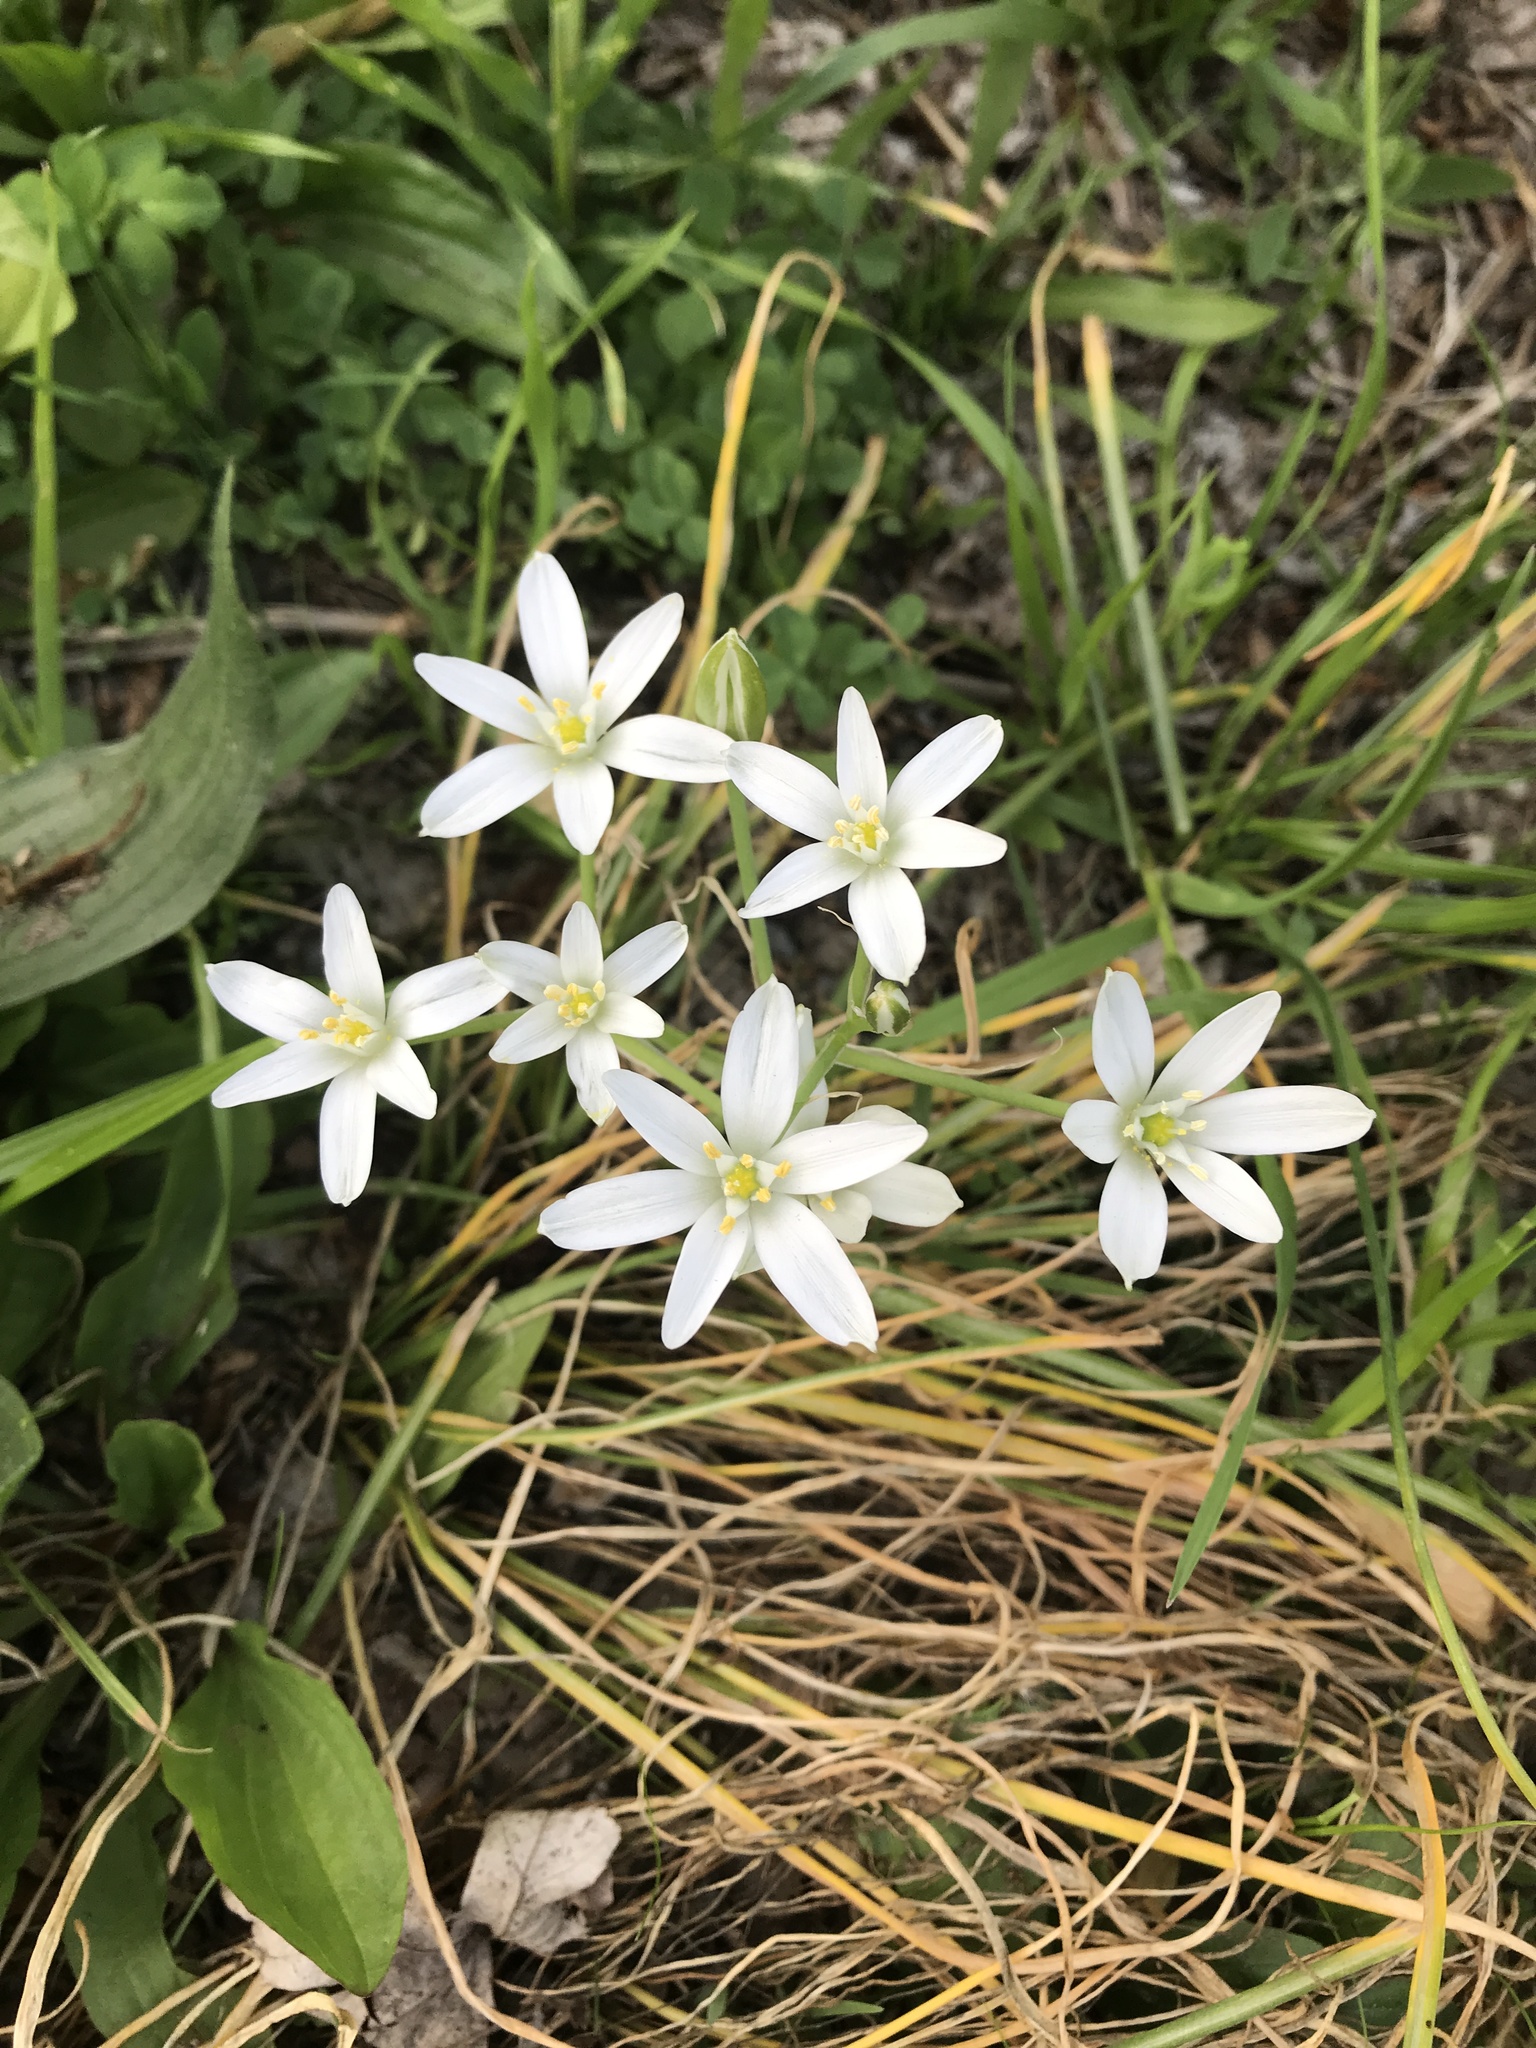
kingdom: Plantae
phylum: Tracheophyta
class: Liliopsida
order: Asparagales
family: Asparagaceae
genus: Ornithogalum
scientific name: Ornithogalum umbellatum
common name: Garden star-of-bethlehem
